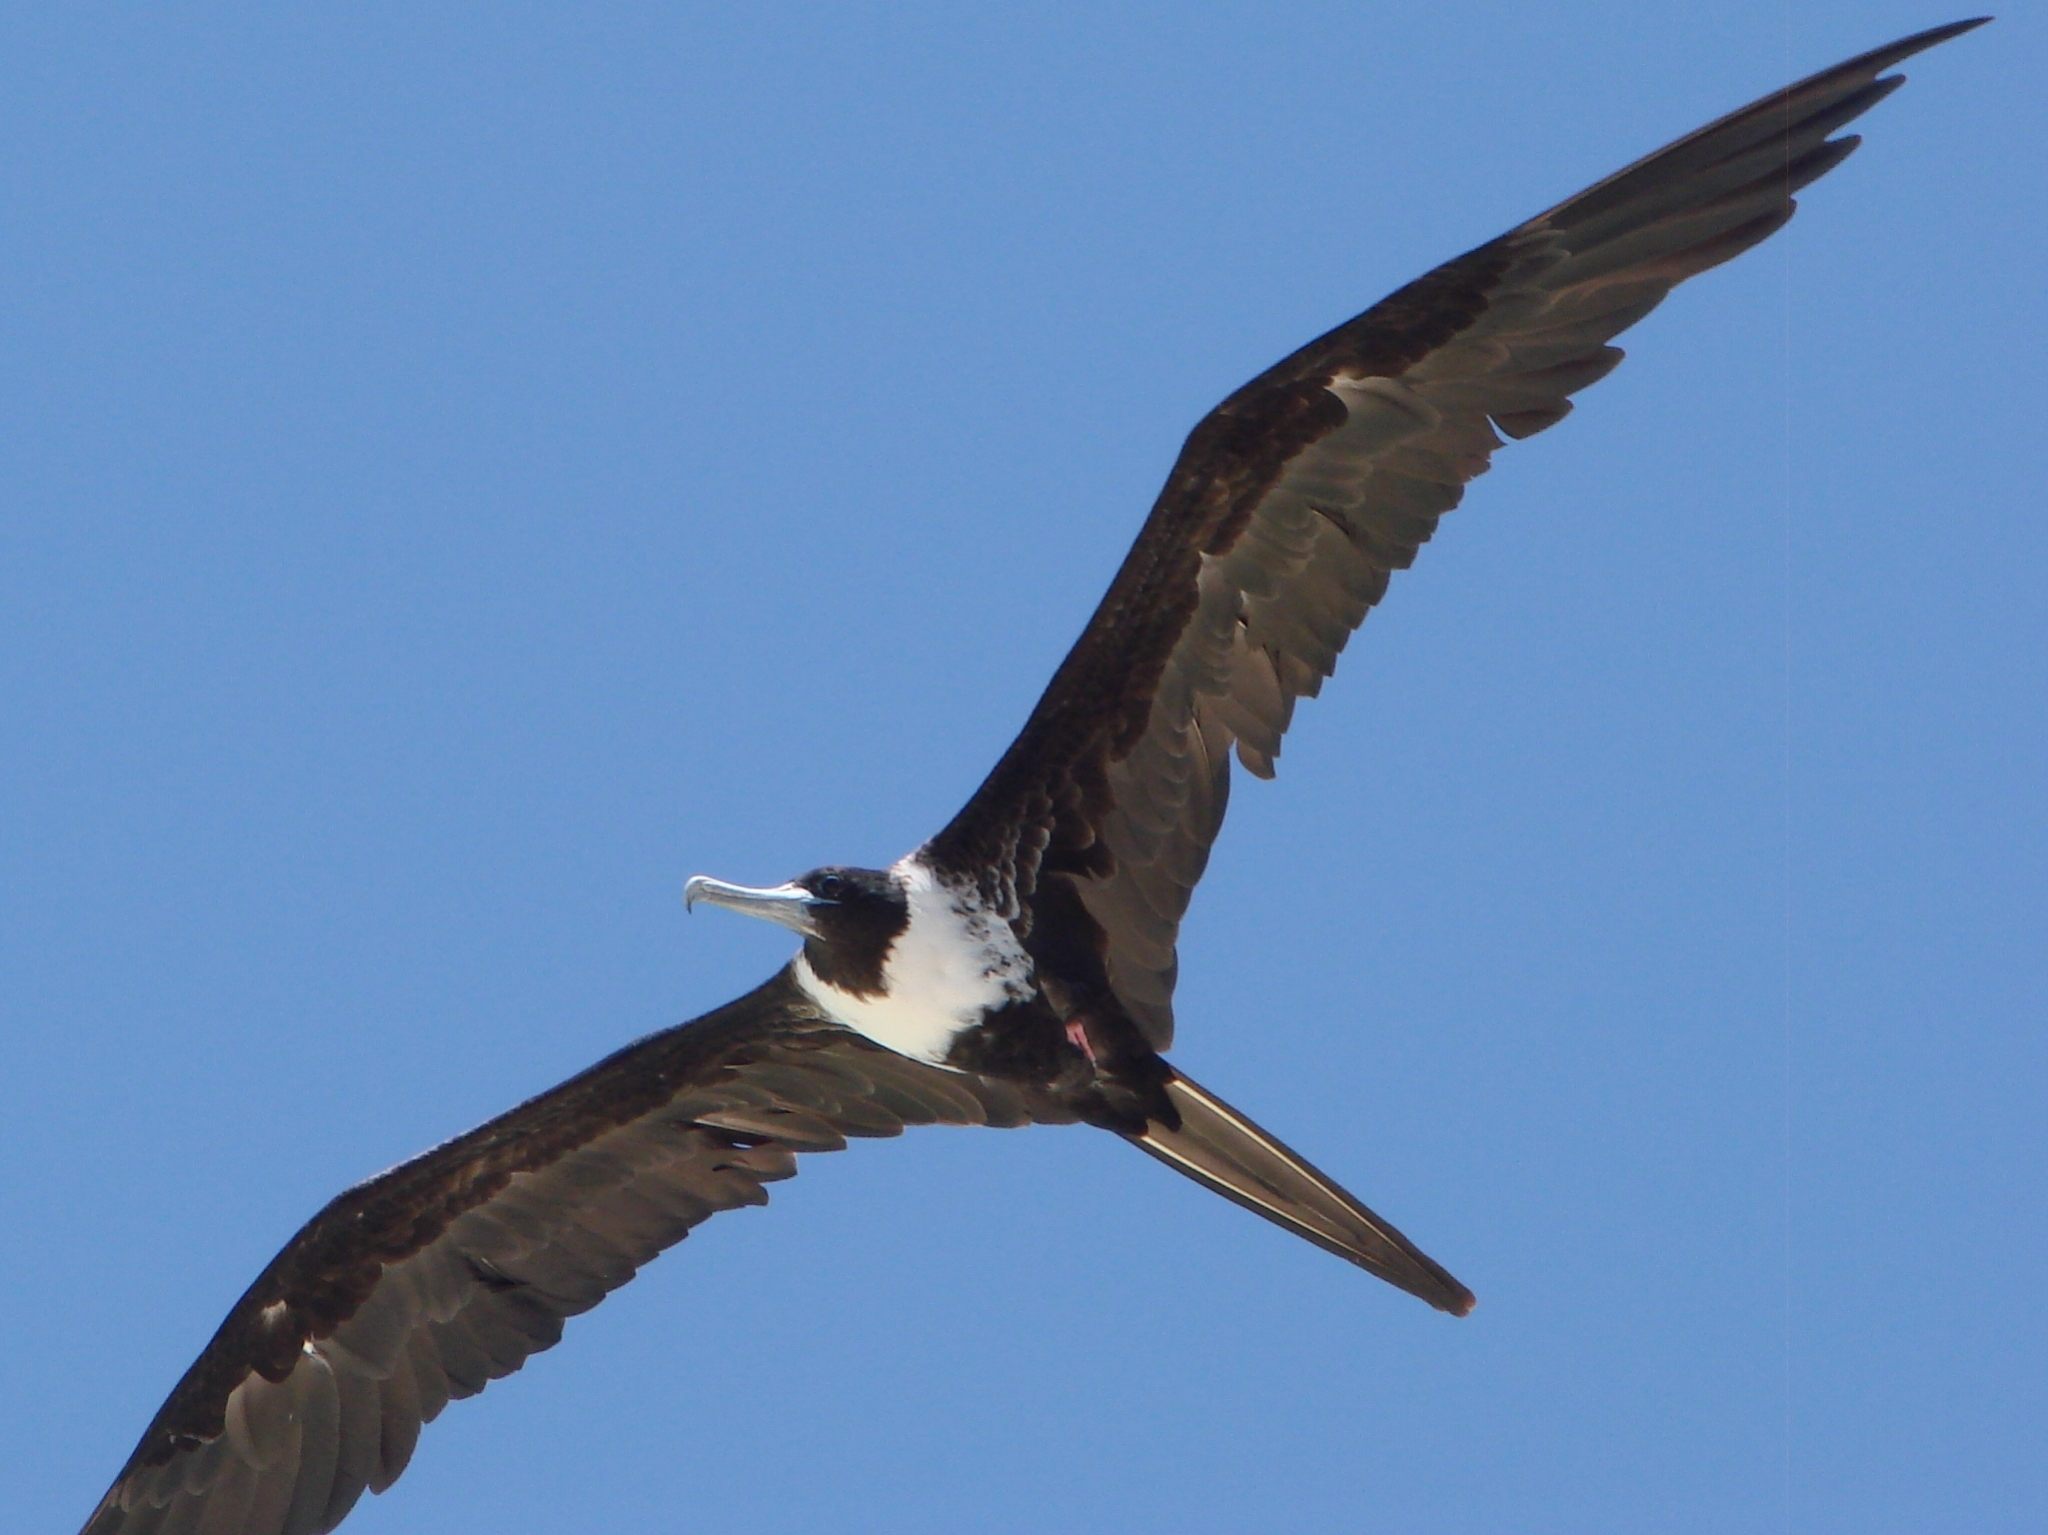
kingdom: Animalia
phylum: Chordata
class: Aves
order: Suliformes
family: Fregatidae
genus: Fregata
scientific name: Fregata magnificens
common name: Magnificent frigatebird
